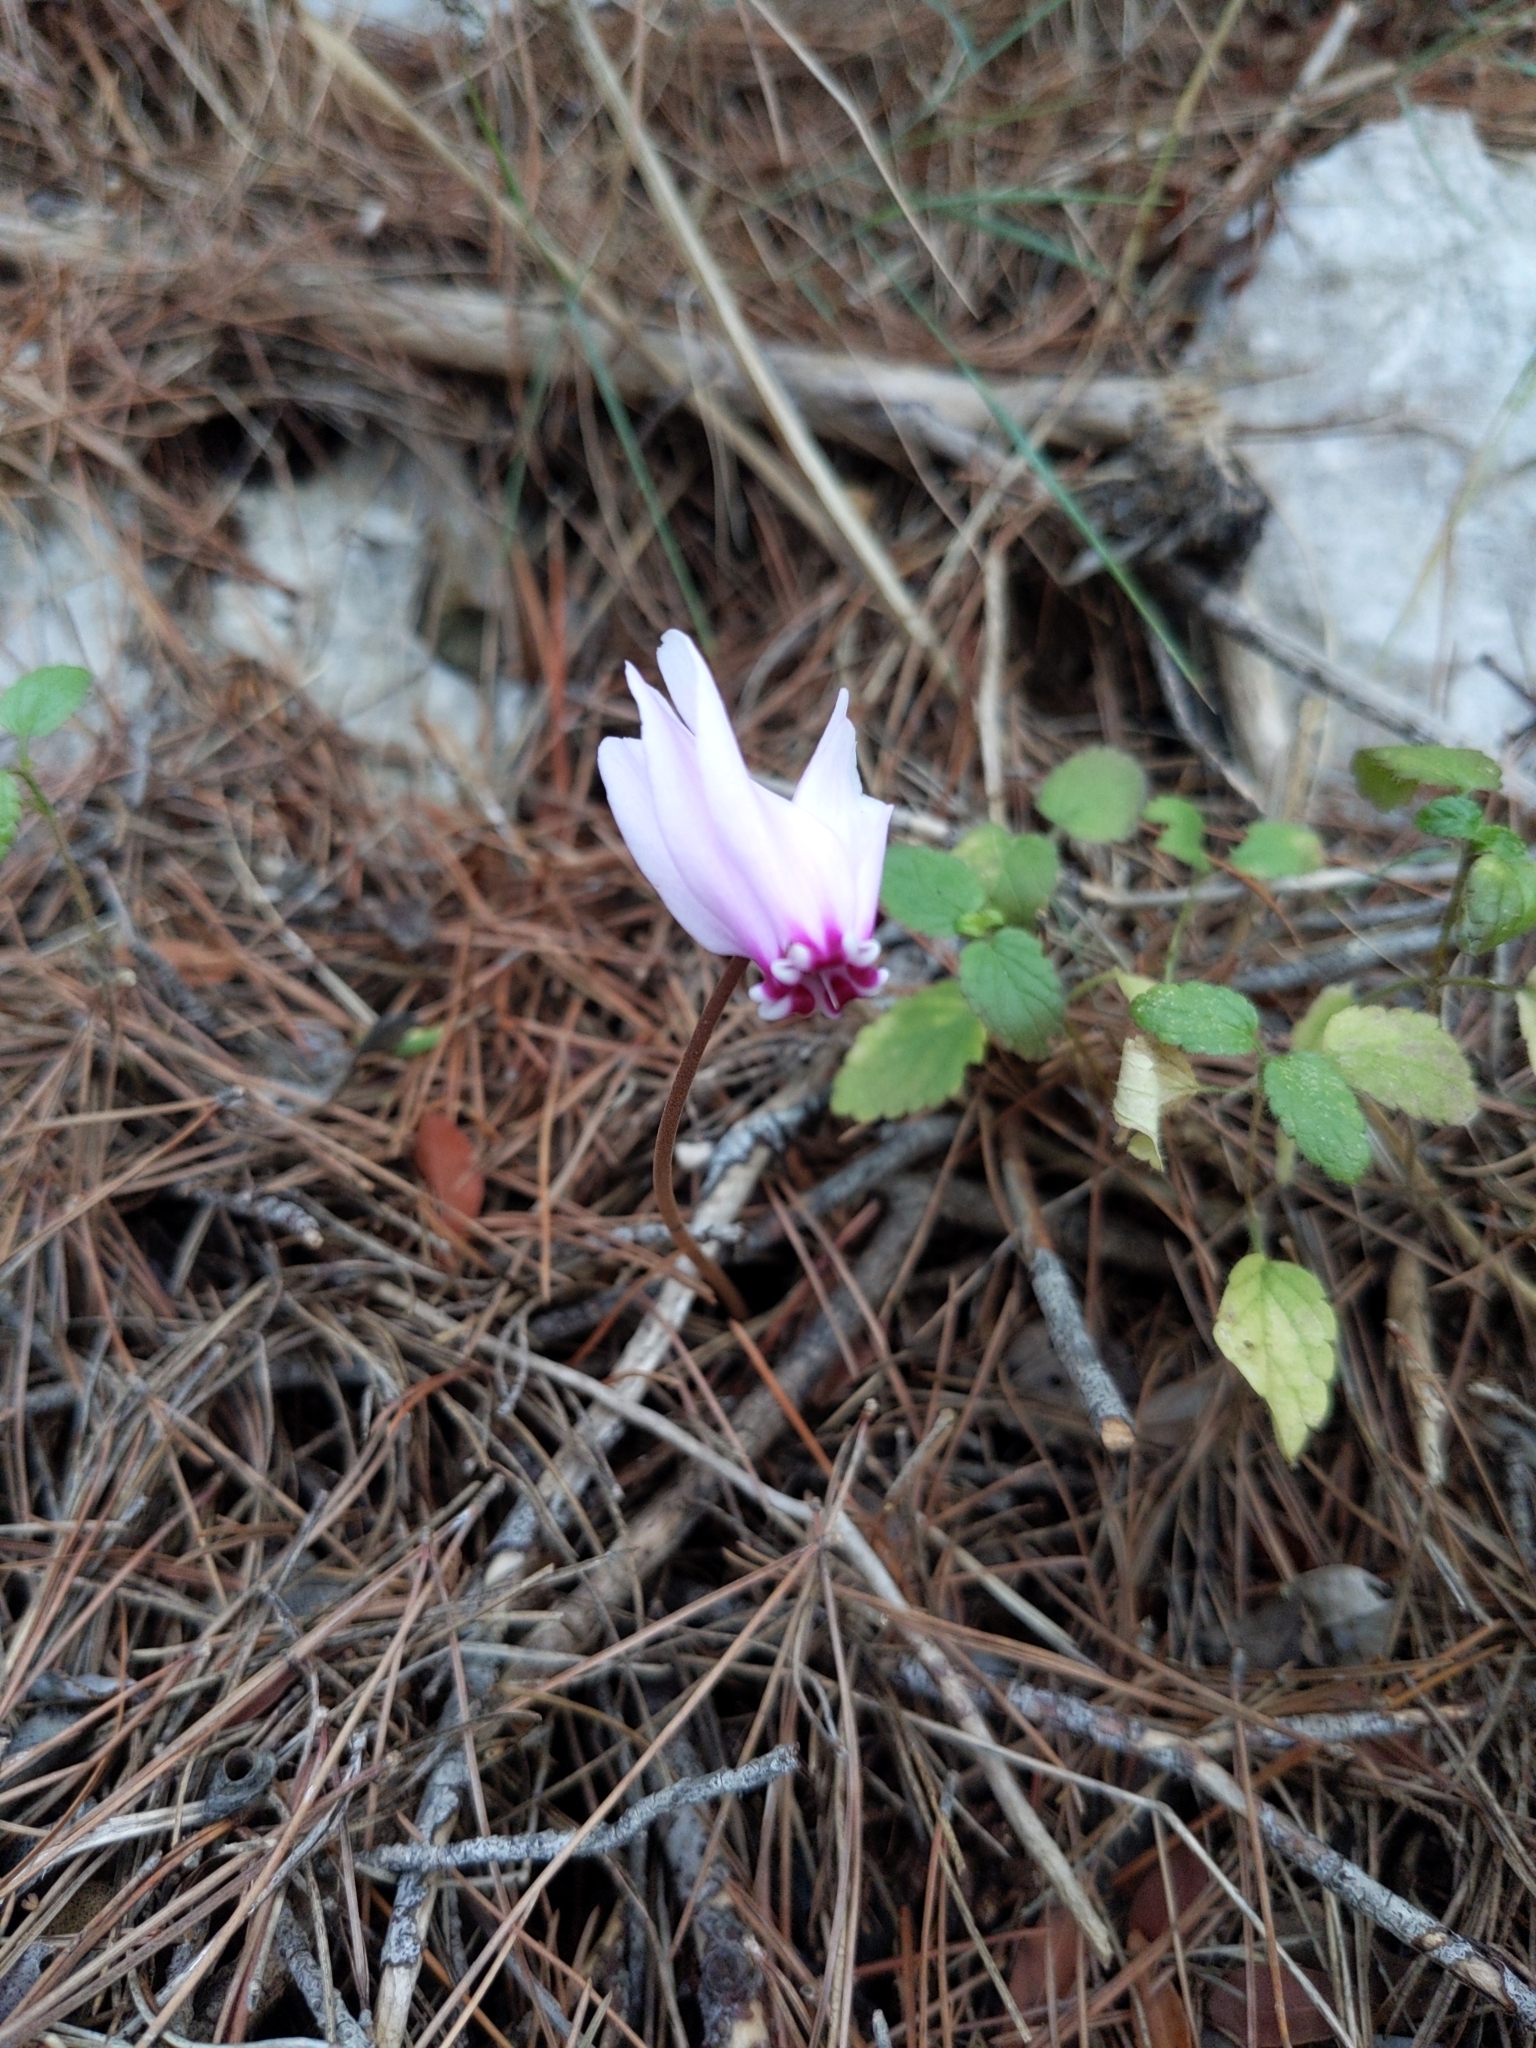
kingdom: Plantae
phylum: Tracheophyta
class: Magnoliopsida
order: Ericales
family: Primulaceae
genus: Cyclamen
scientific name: Cyclamen hederifolium
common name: Sowbread
